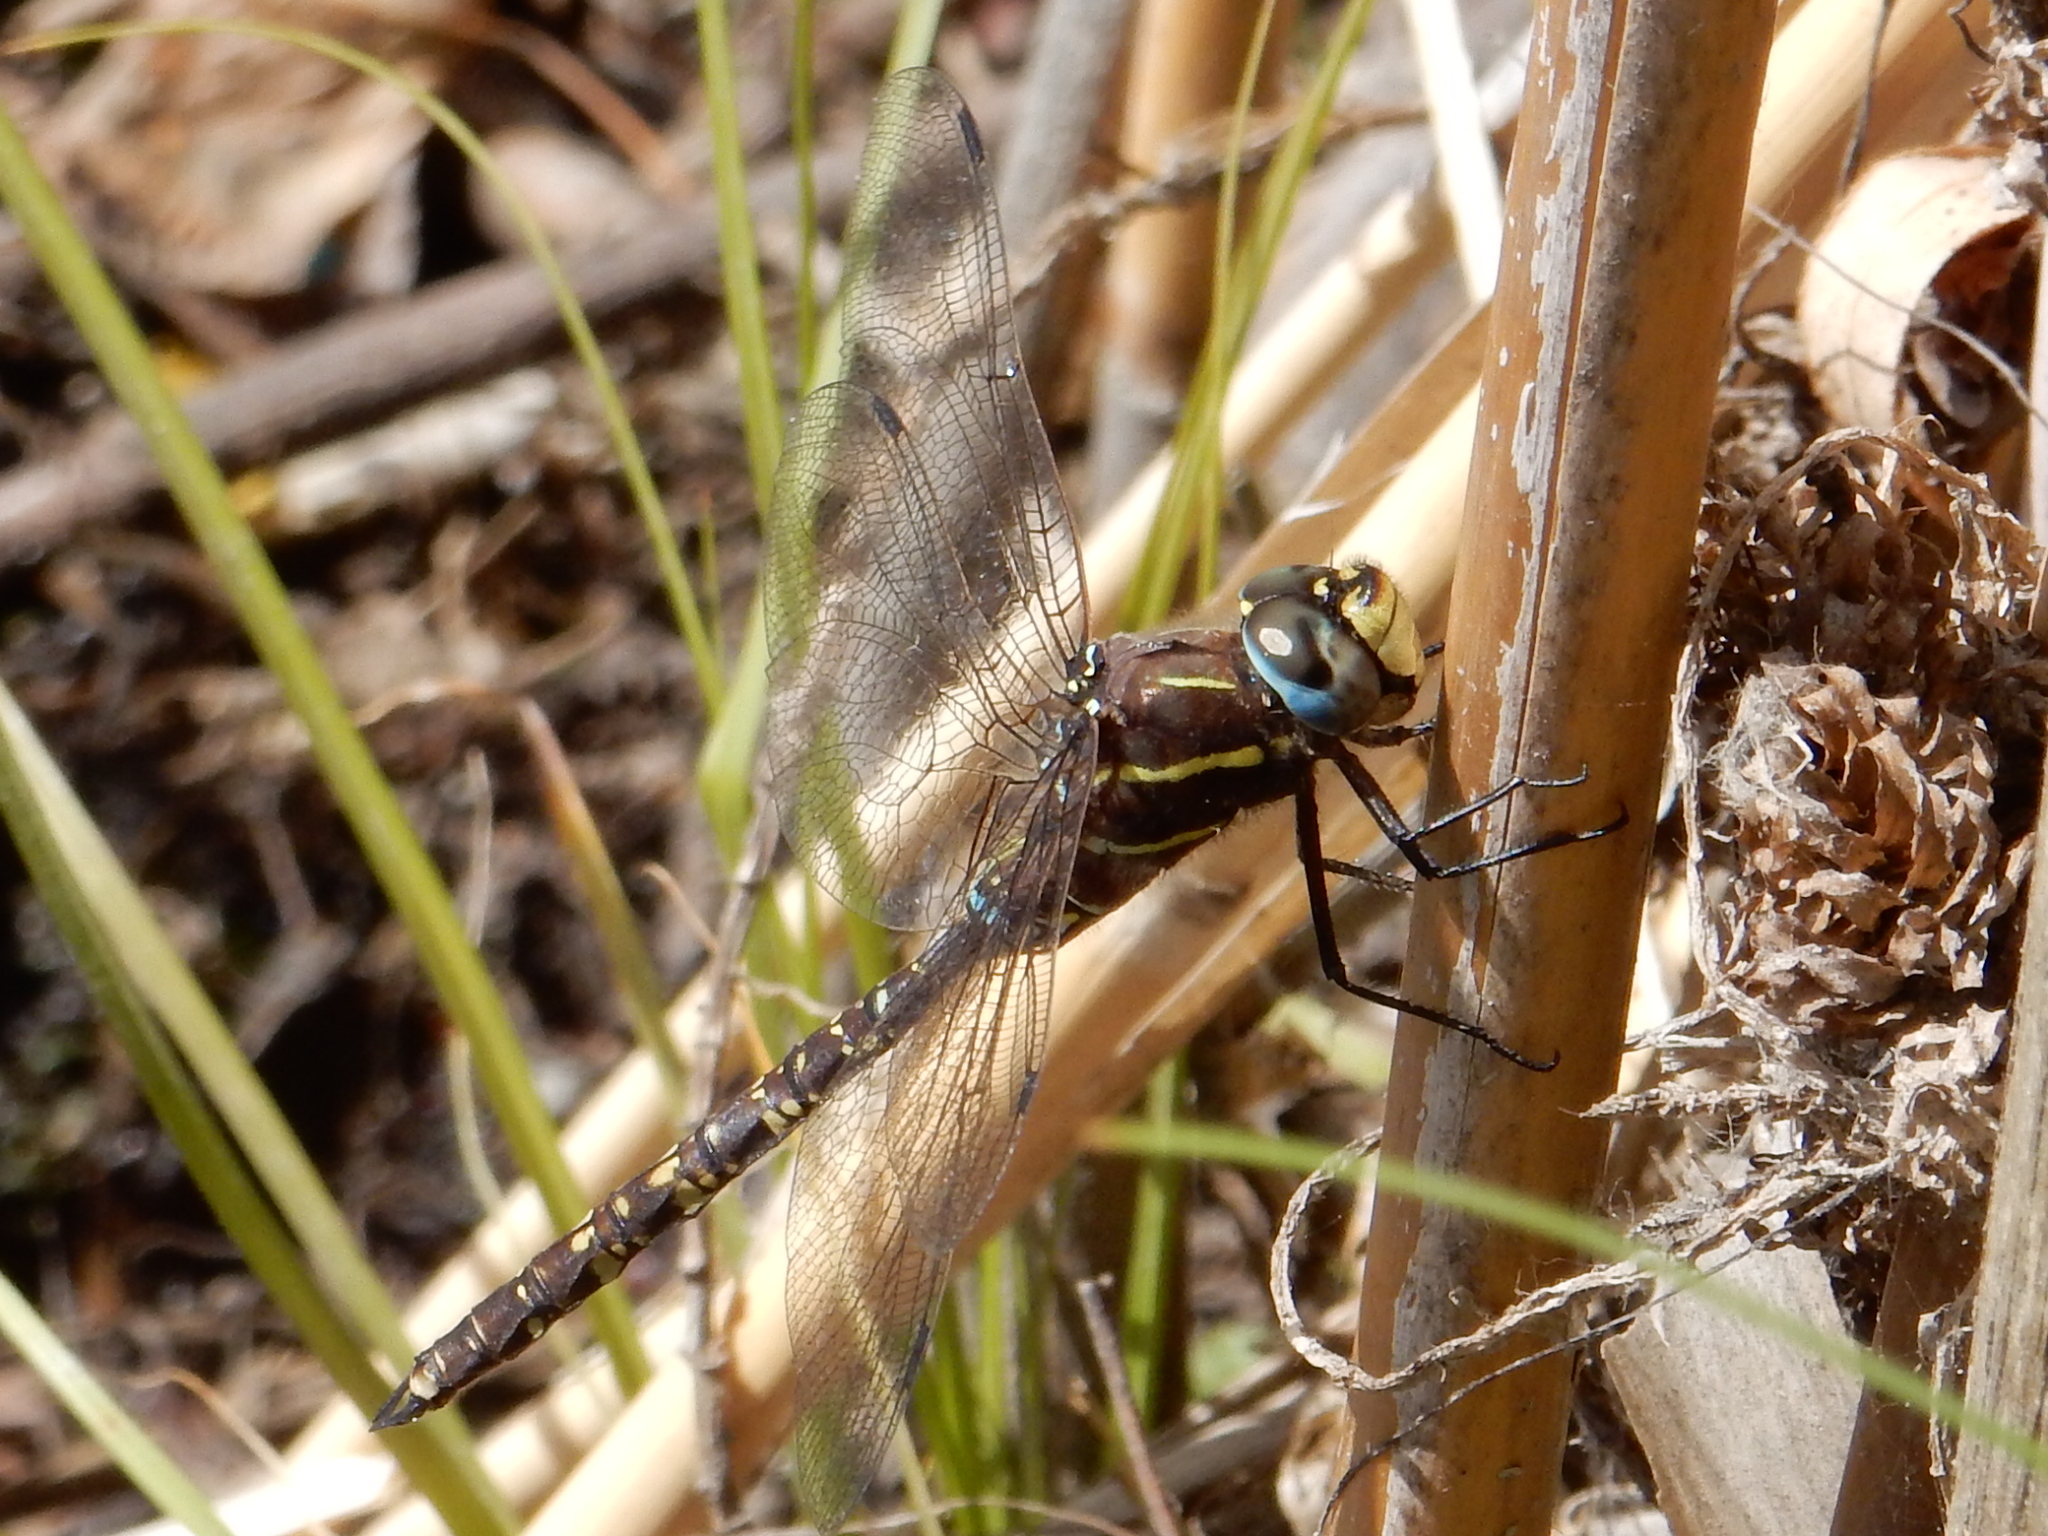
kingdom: Animalia
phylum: Arthropoda
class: Insecta
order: Odonata
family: Aeshnidae
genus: Aeshna
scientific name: Aeshna brevistyla
